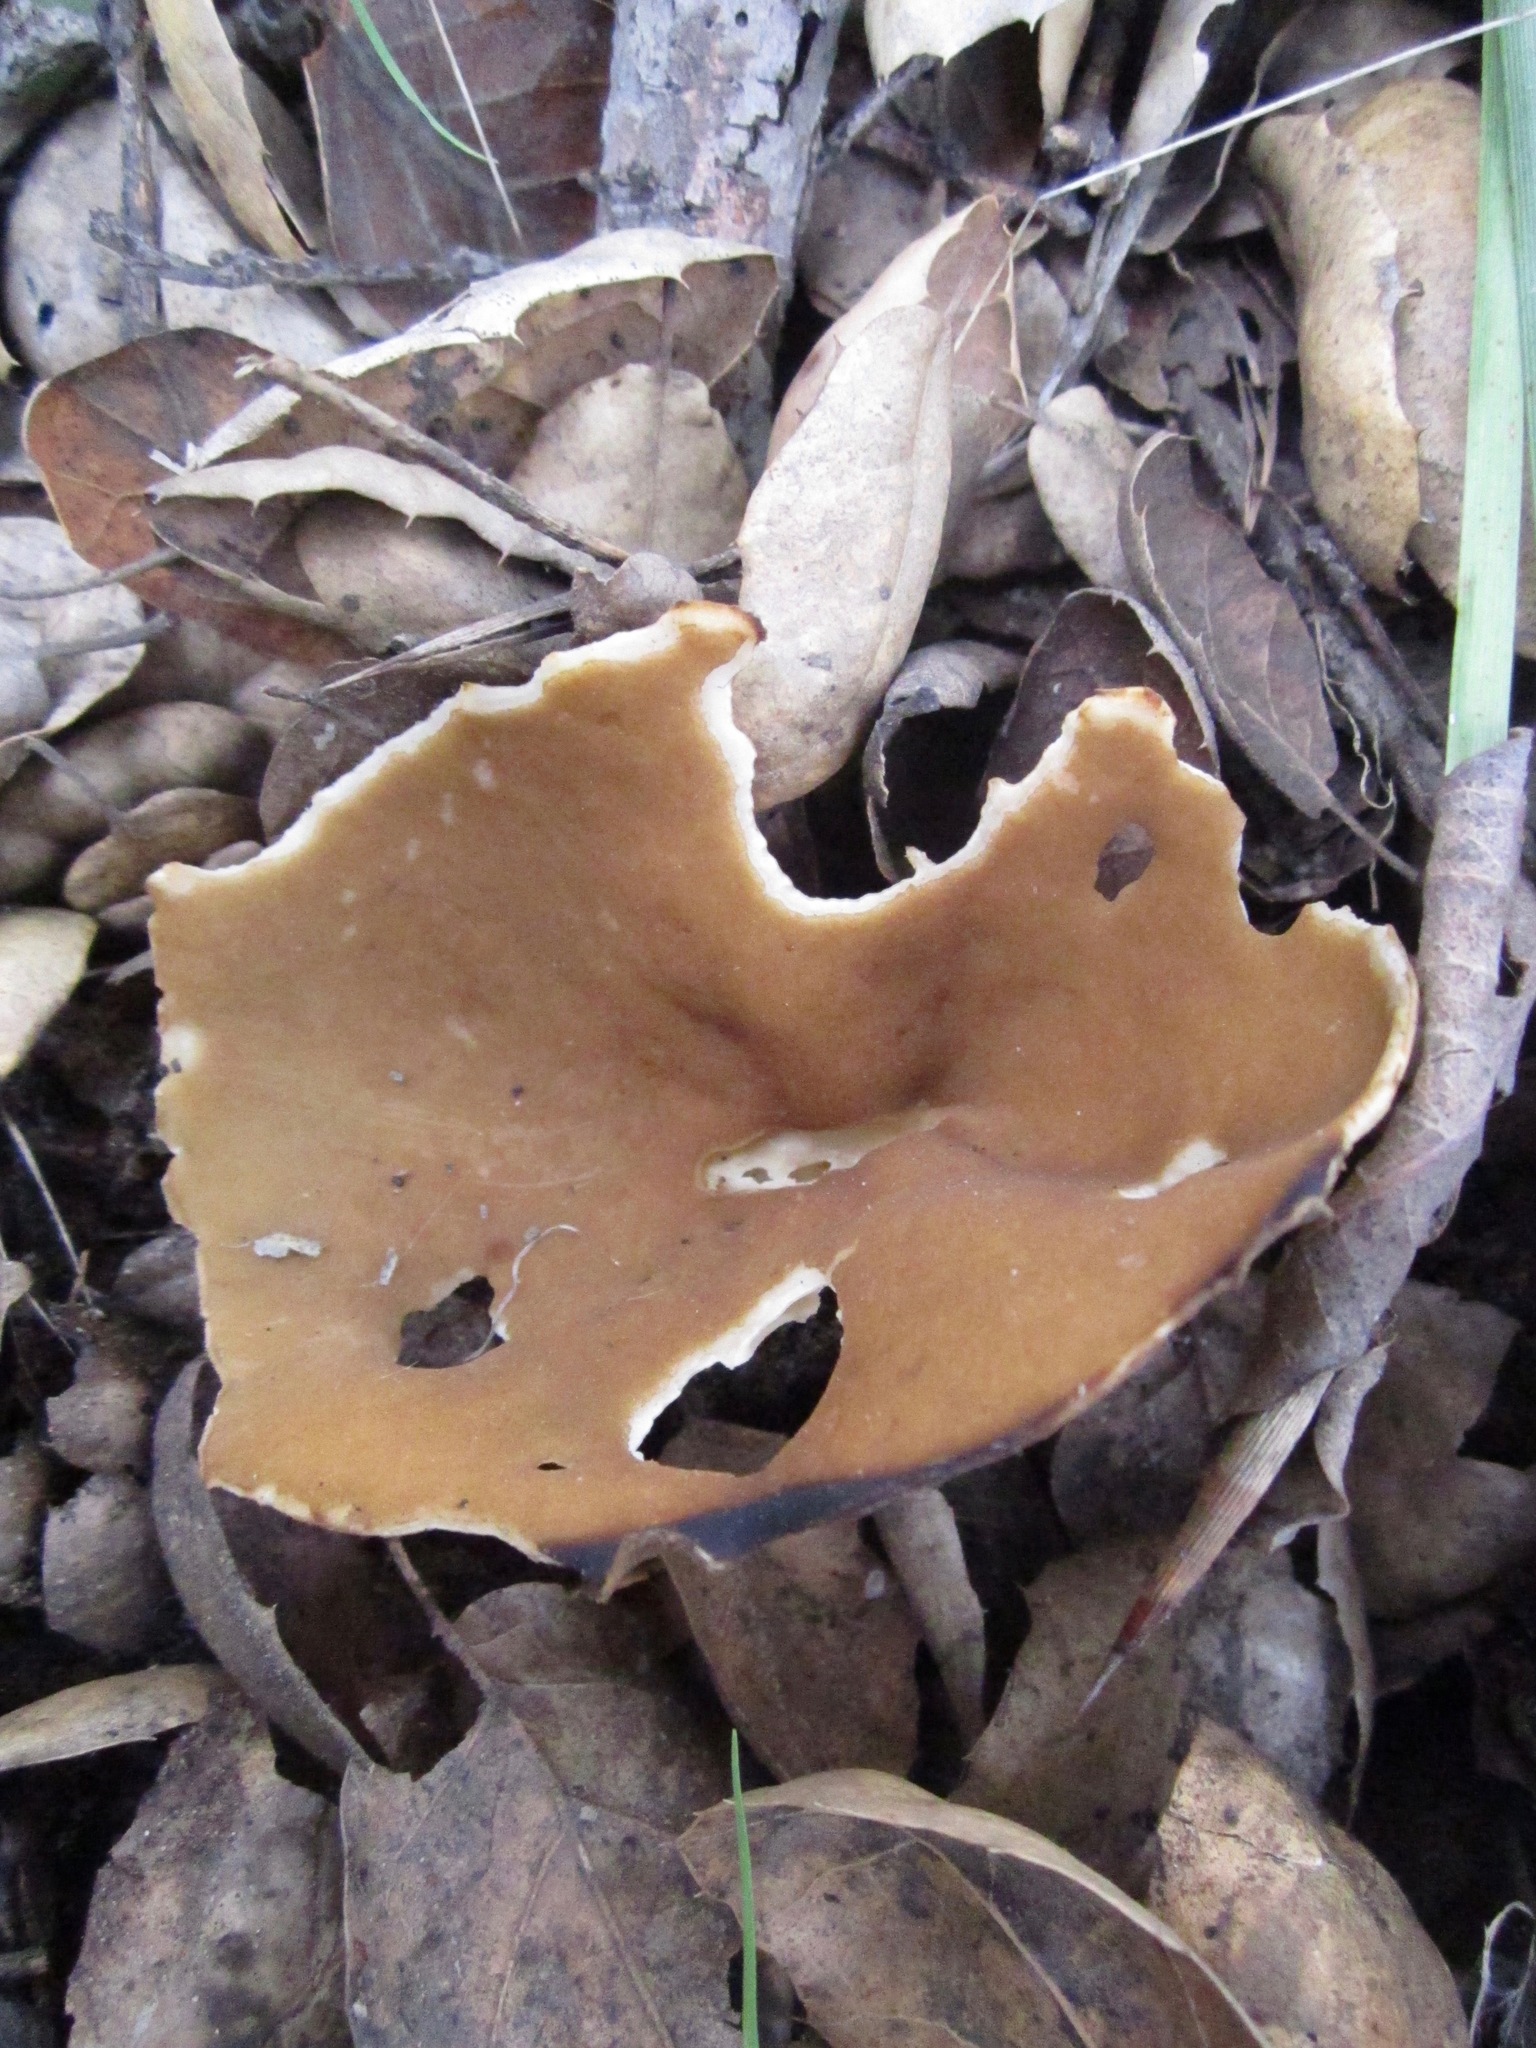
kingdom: Fungi
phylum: Ascomycota
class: Pezizomycetes
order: Pezizales
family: Helvellaceae
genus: Helvella
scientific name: Helvella acetabulum
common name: Vinegar cup
